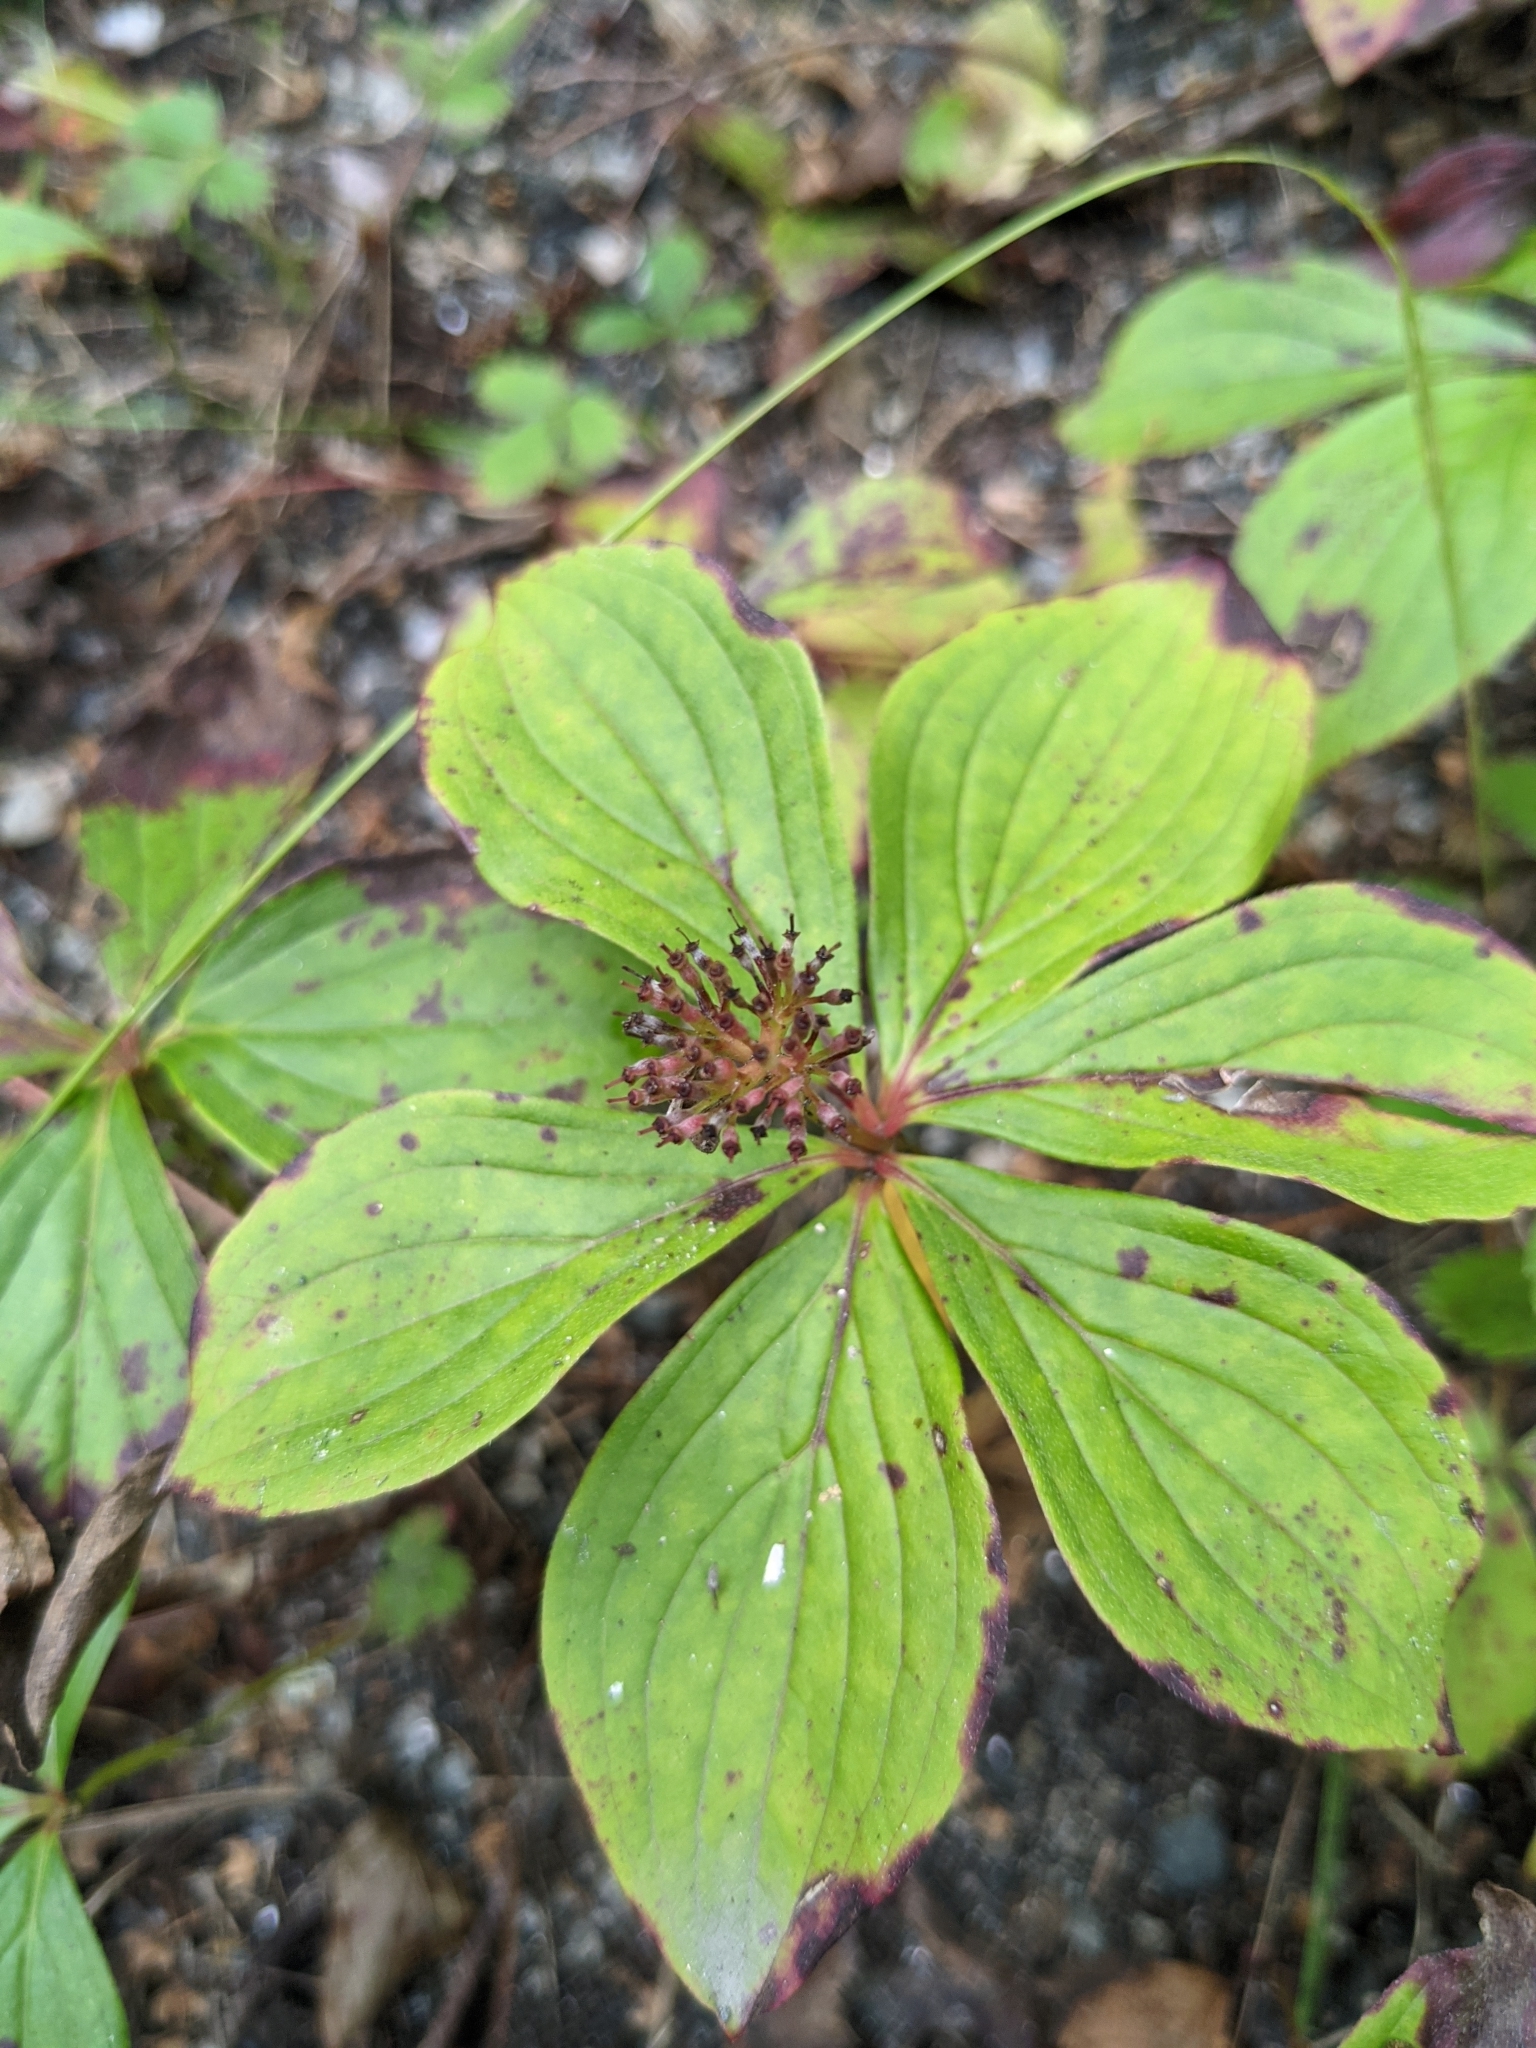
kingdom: Plantae
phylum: Tracheophyta
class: Magnoliopsida
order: Cornales
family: Cornaceae
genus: Cornus
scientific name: Cornus canadensis
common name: Creeping dogwood
